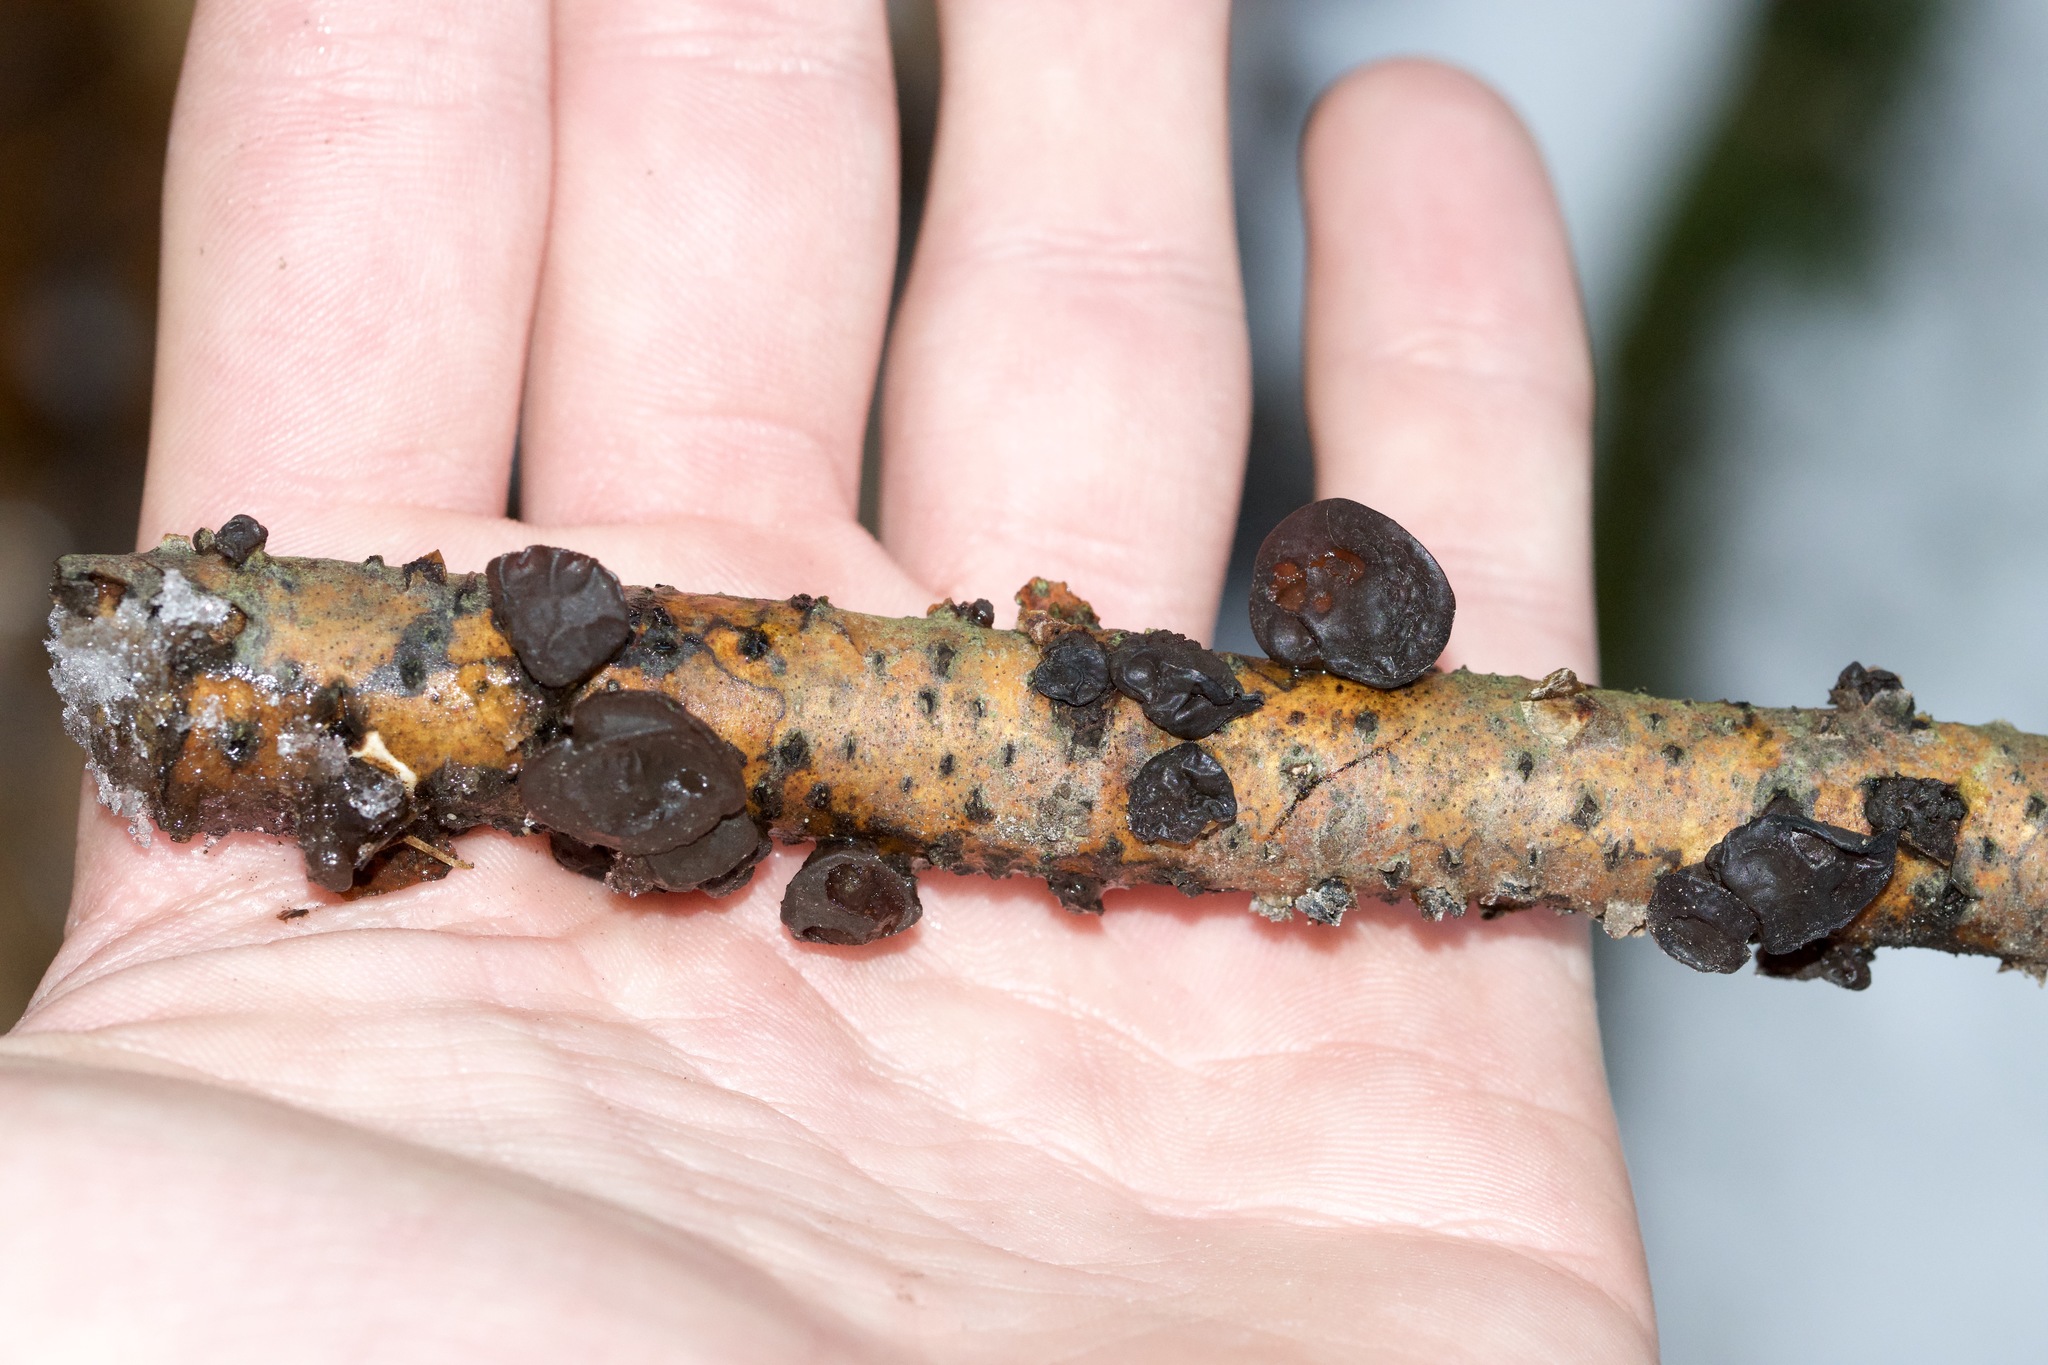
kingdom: Fungi
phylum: Basidiomycota
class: Agaricomycetes
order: Auriculariales
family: Auriculariaceae
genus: Exidia
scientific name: Exidia
